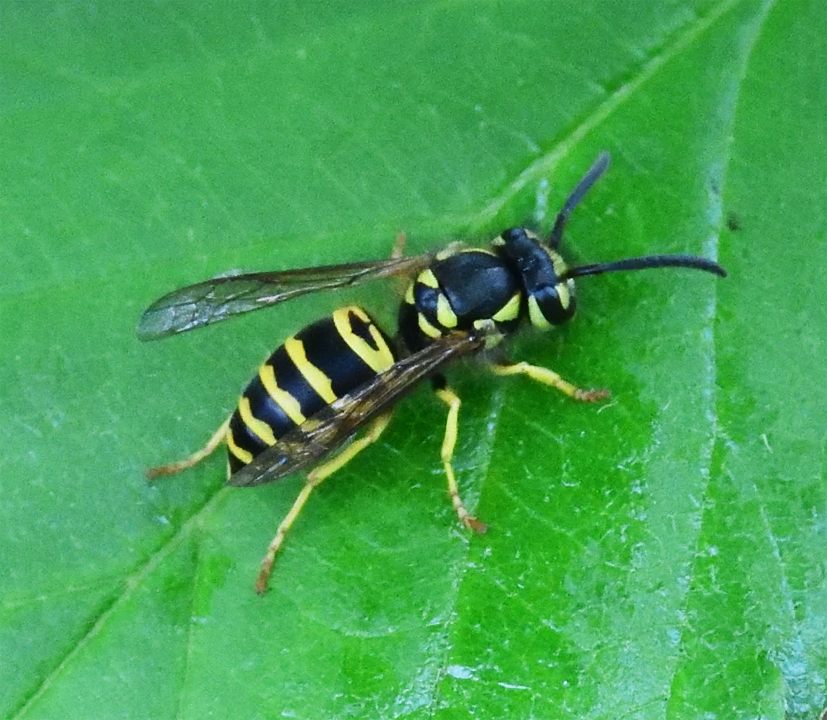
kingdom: Animalia
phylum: Arthropoda
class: Insecta
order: Hymenoptera
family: Vespidae
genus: Vespula
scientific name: Vespula maculifrons
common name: Eastern yellowjacket
